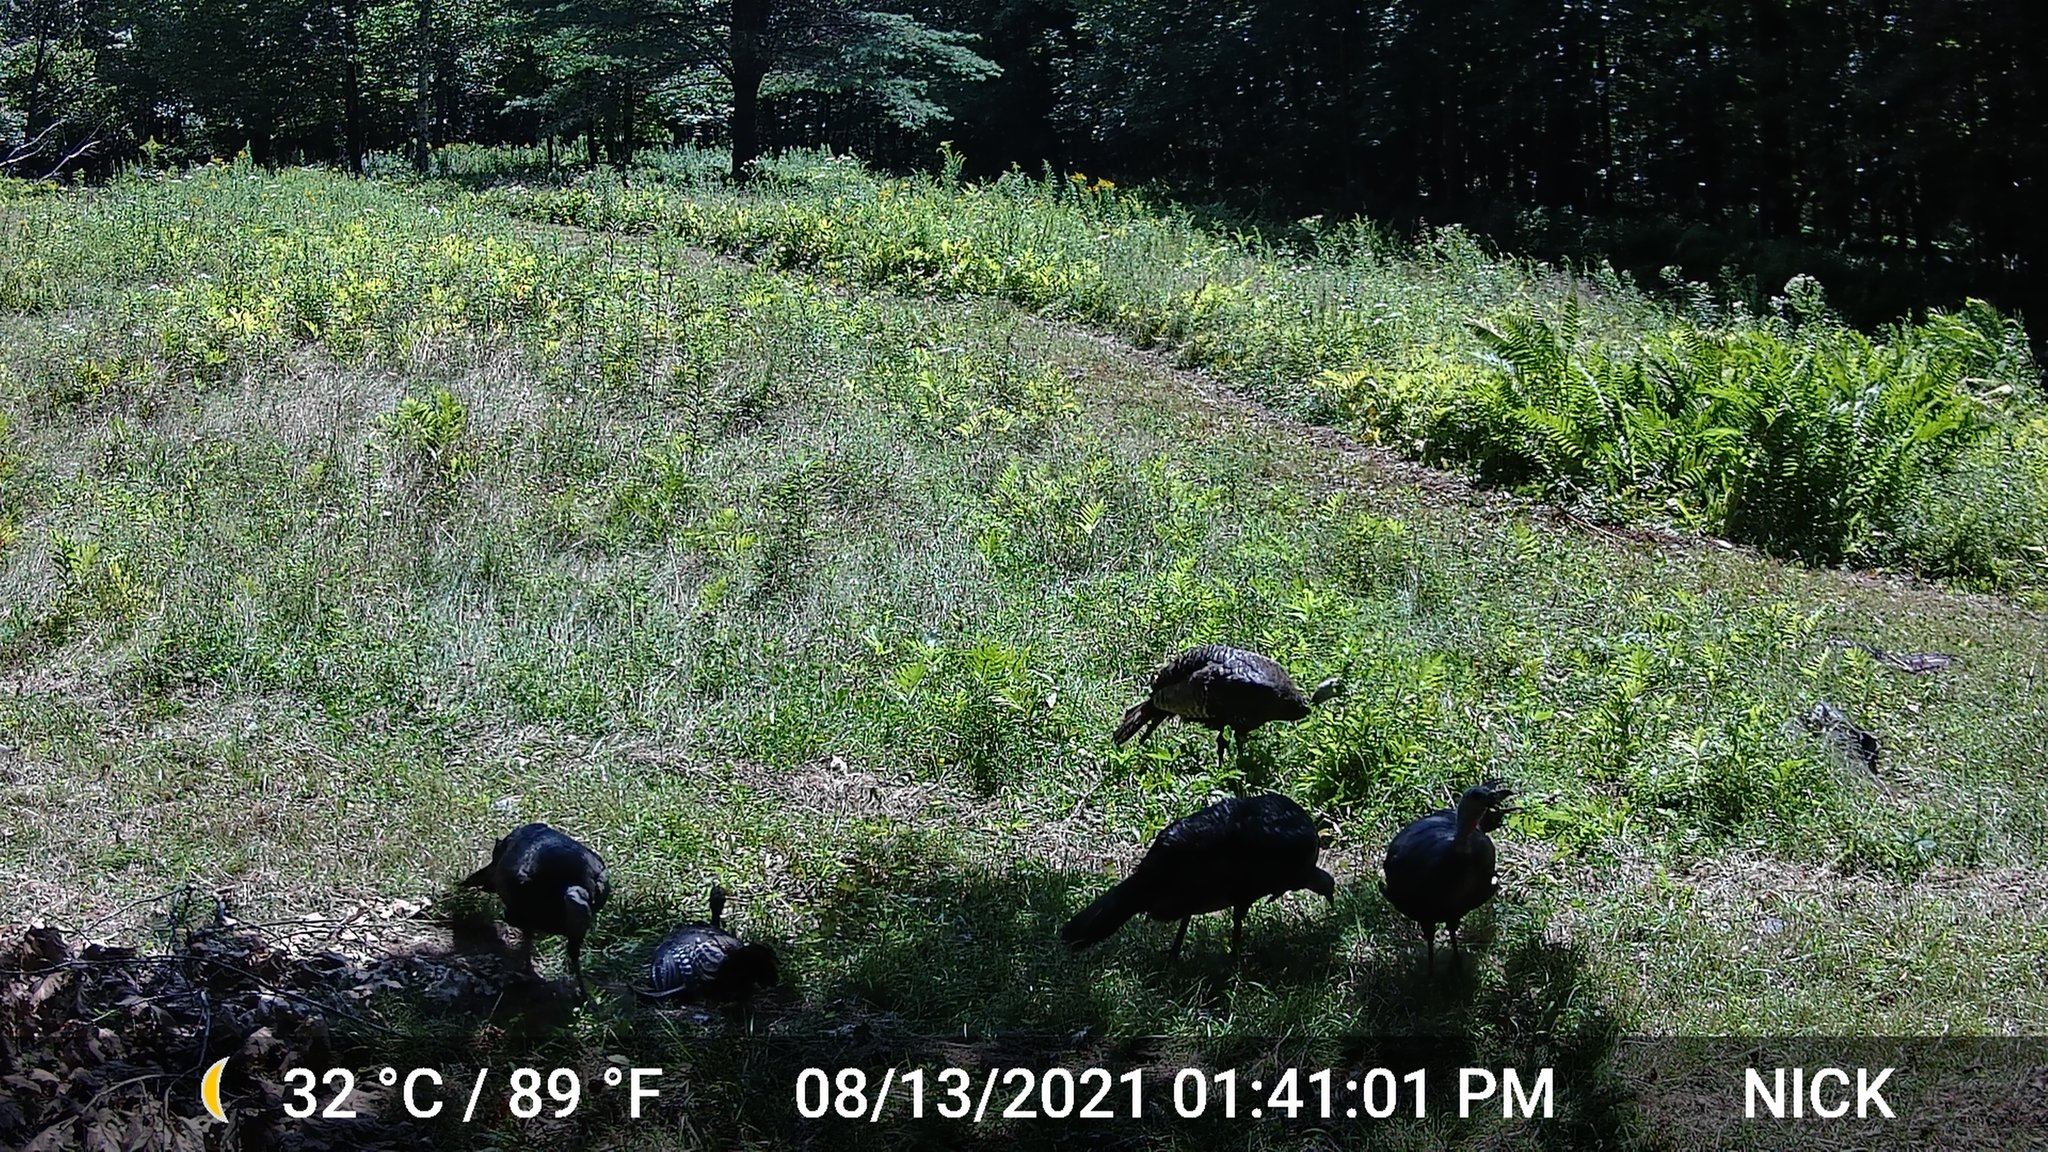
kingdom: Animalia
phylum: Chordata
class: Aves
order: Galliformes
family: Phasianidae
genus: Meleagris
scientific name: Meleagris gallopavo
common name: Wild turkey
